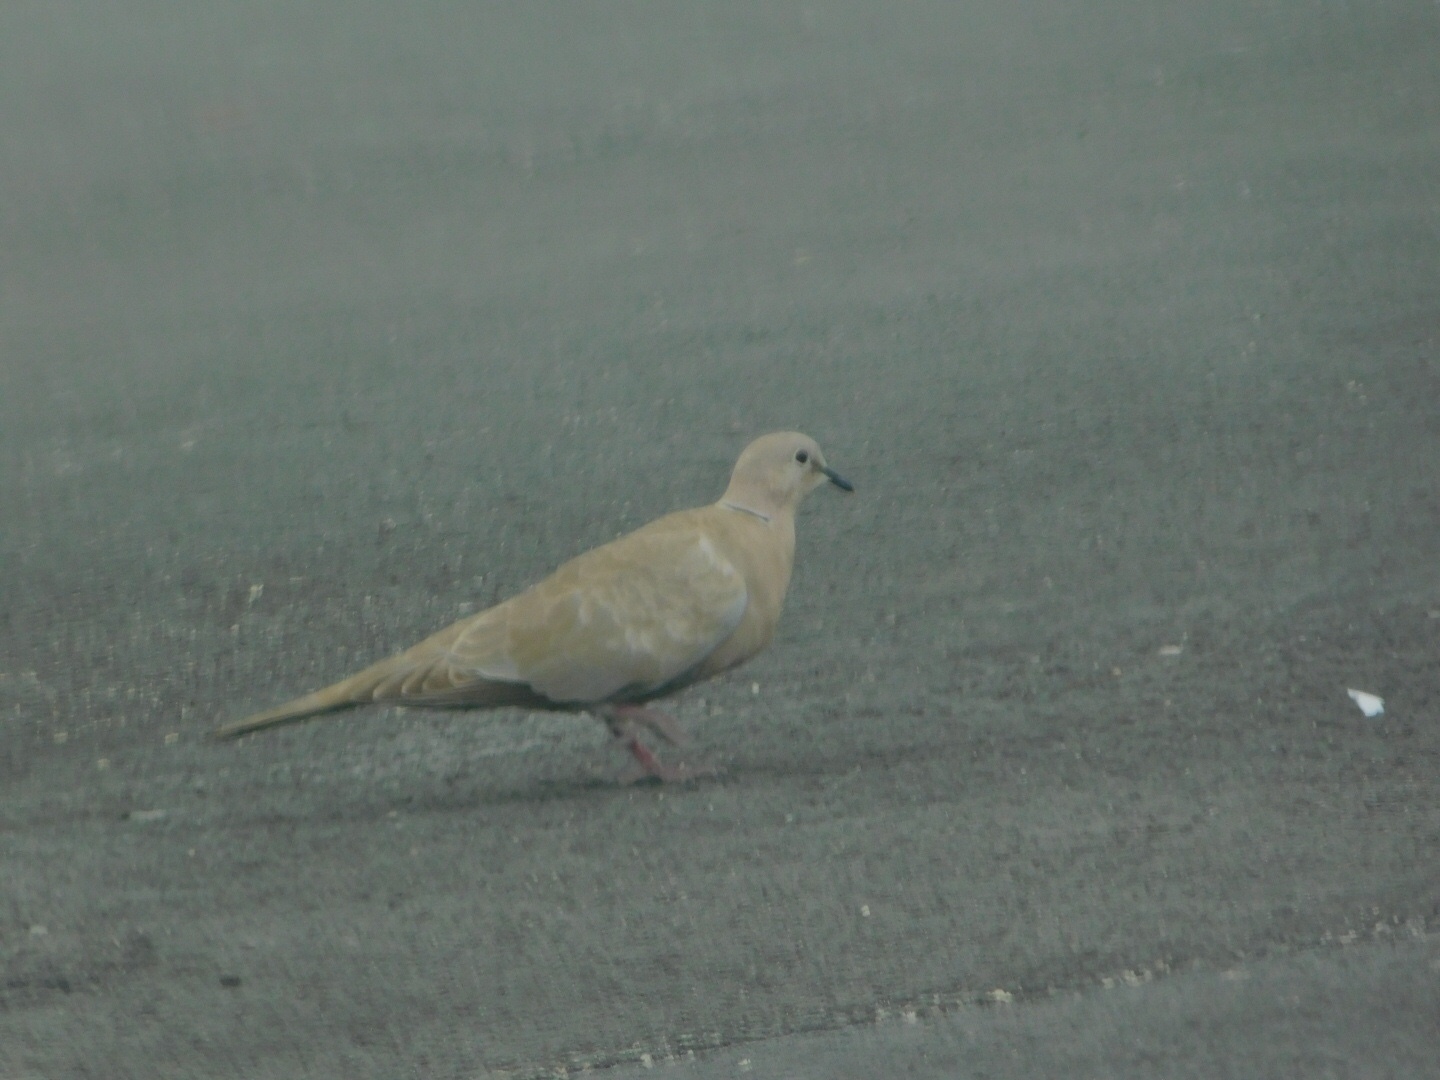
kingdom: Animalia
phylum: Chordata
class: Aves
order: Columbiformes
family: Columbidae
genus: Streptopelia
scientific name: Streptopelia decaocto
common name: Eurasian collared dove
